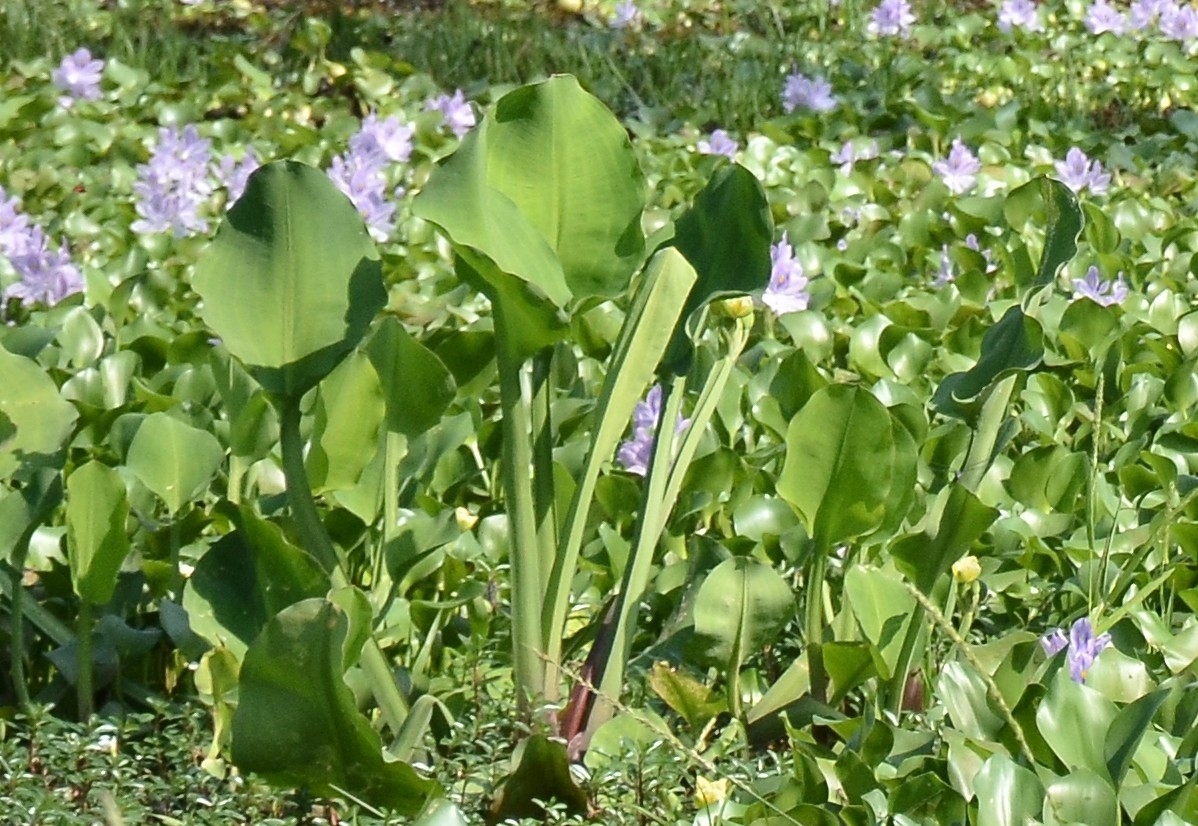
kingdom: Plantae
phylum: Tracheophyta
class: Liliopsida
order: Alismatales
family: Alismataceae
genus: Limnocharis
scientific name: Limnocharis flava
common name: Sawah-flower-rush
